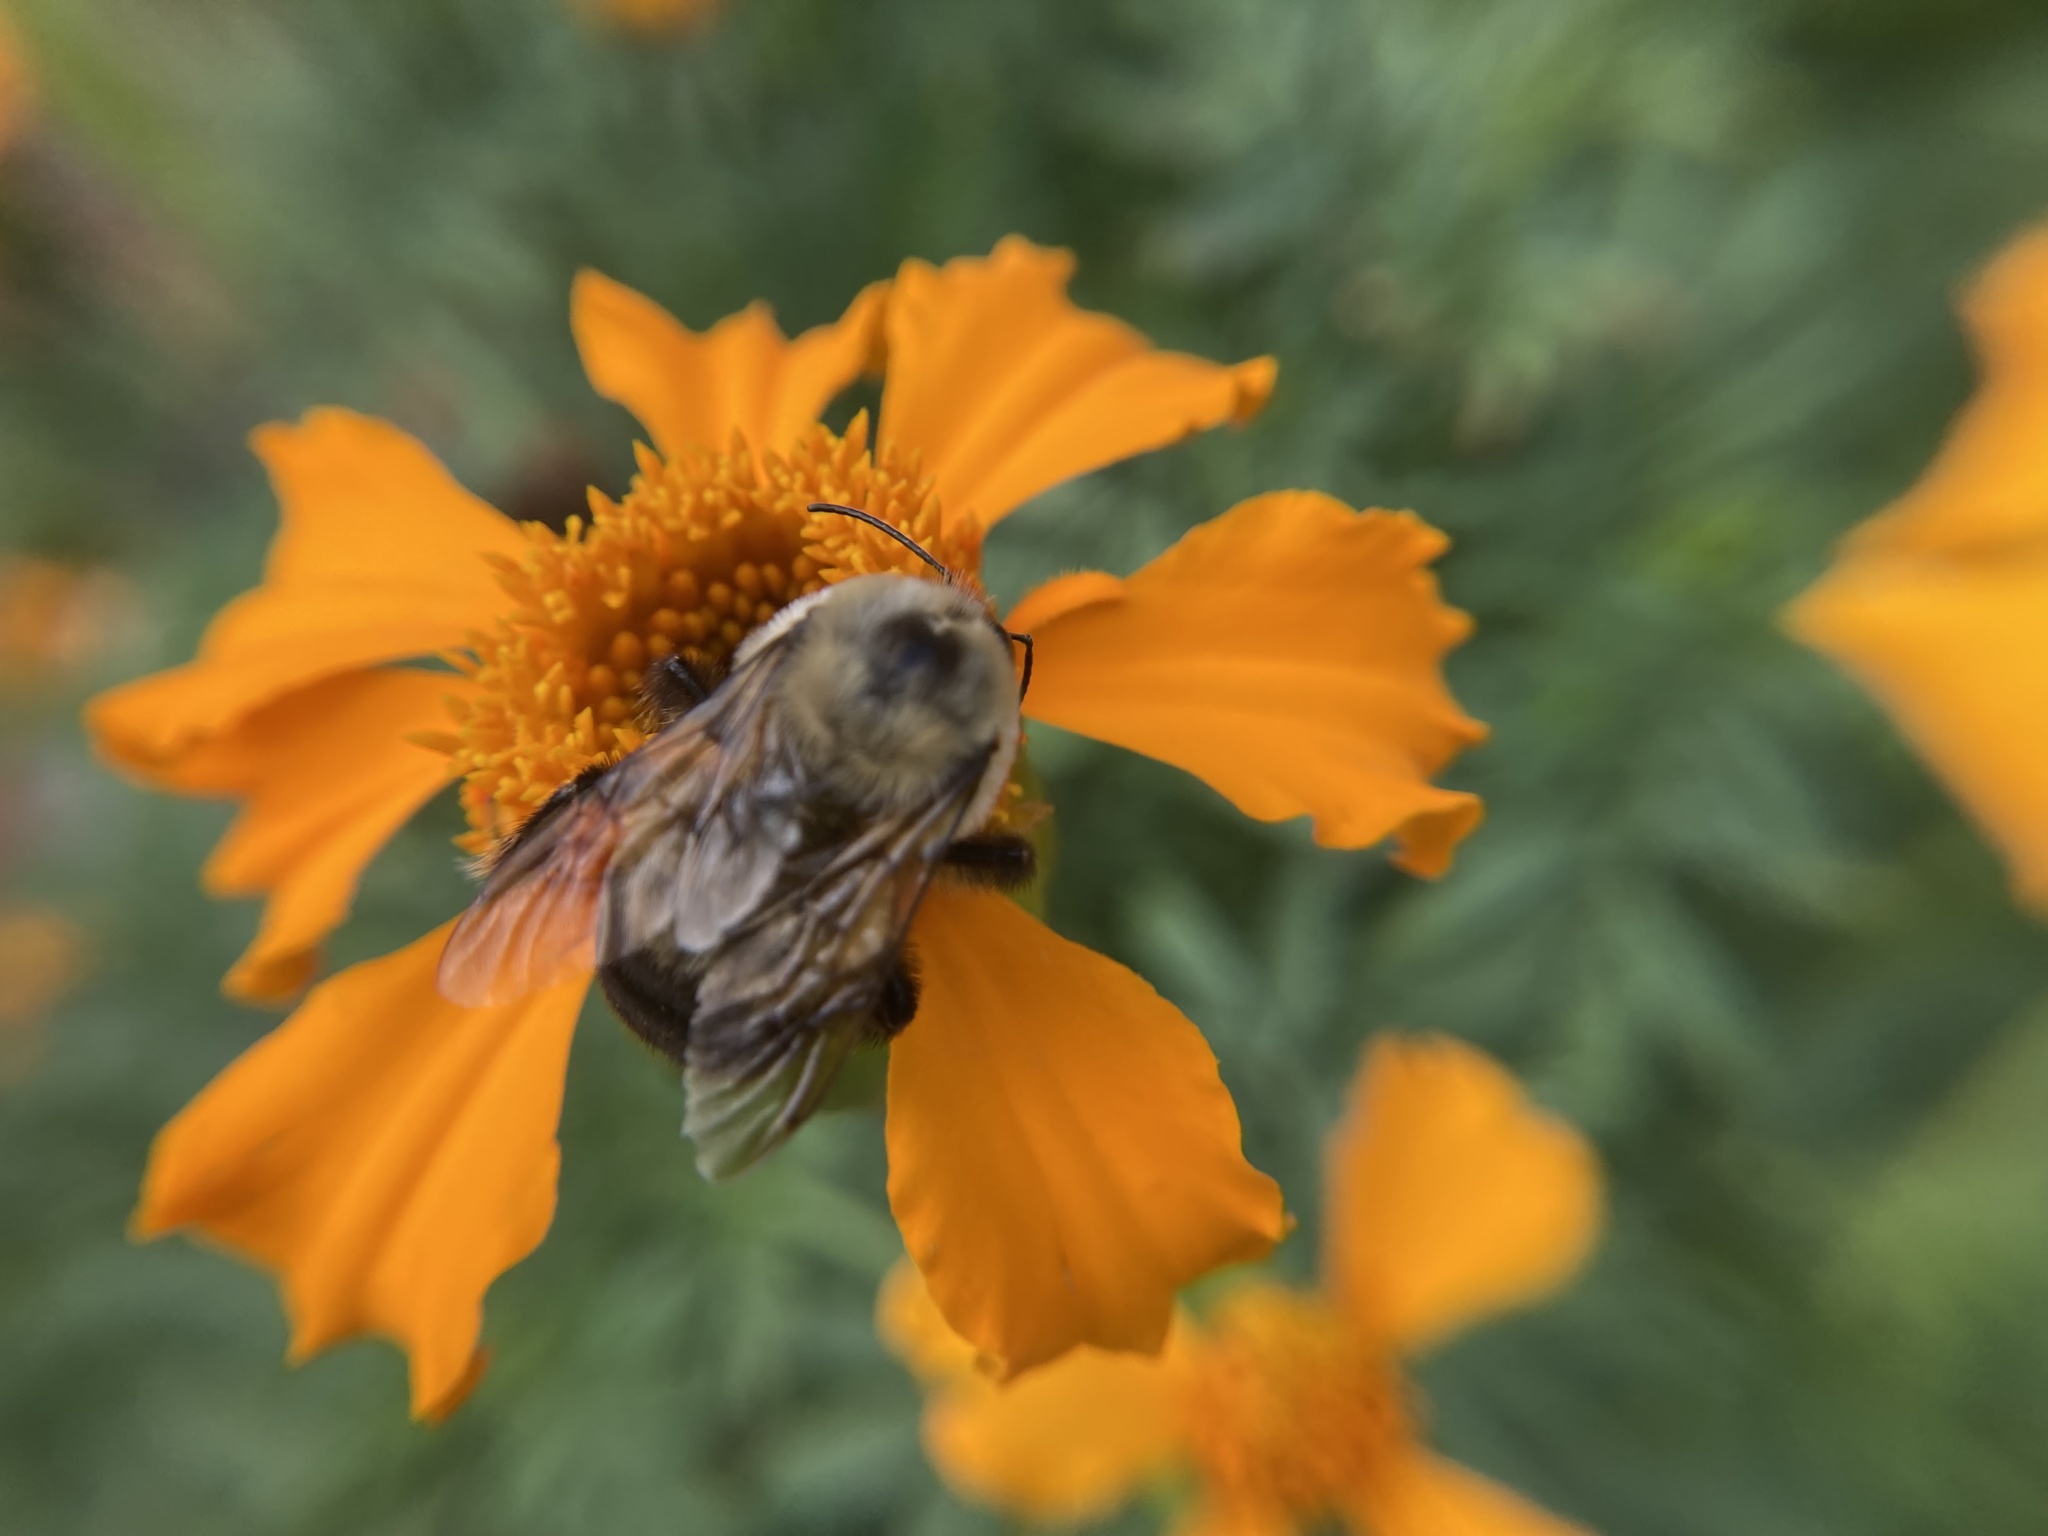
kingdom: Animalia
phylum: Arthropoda
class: Insecta
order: Hymenoptera
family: Apidae
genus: Bombus
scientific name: Bombus griseocollis
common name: Brown-belted bumble bee
